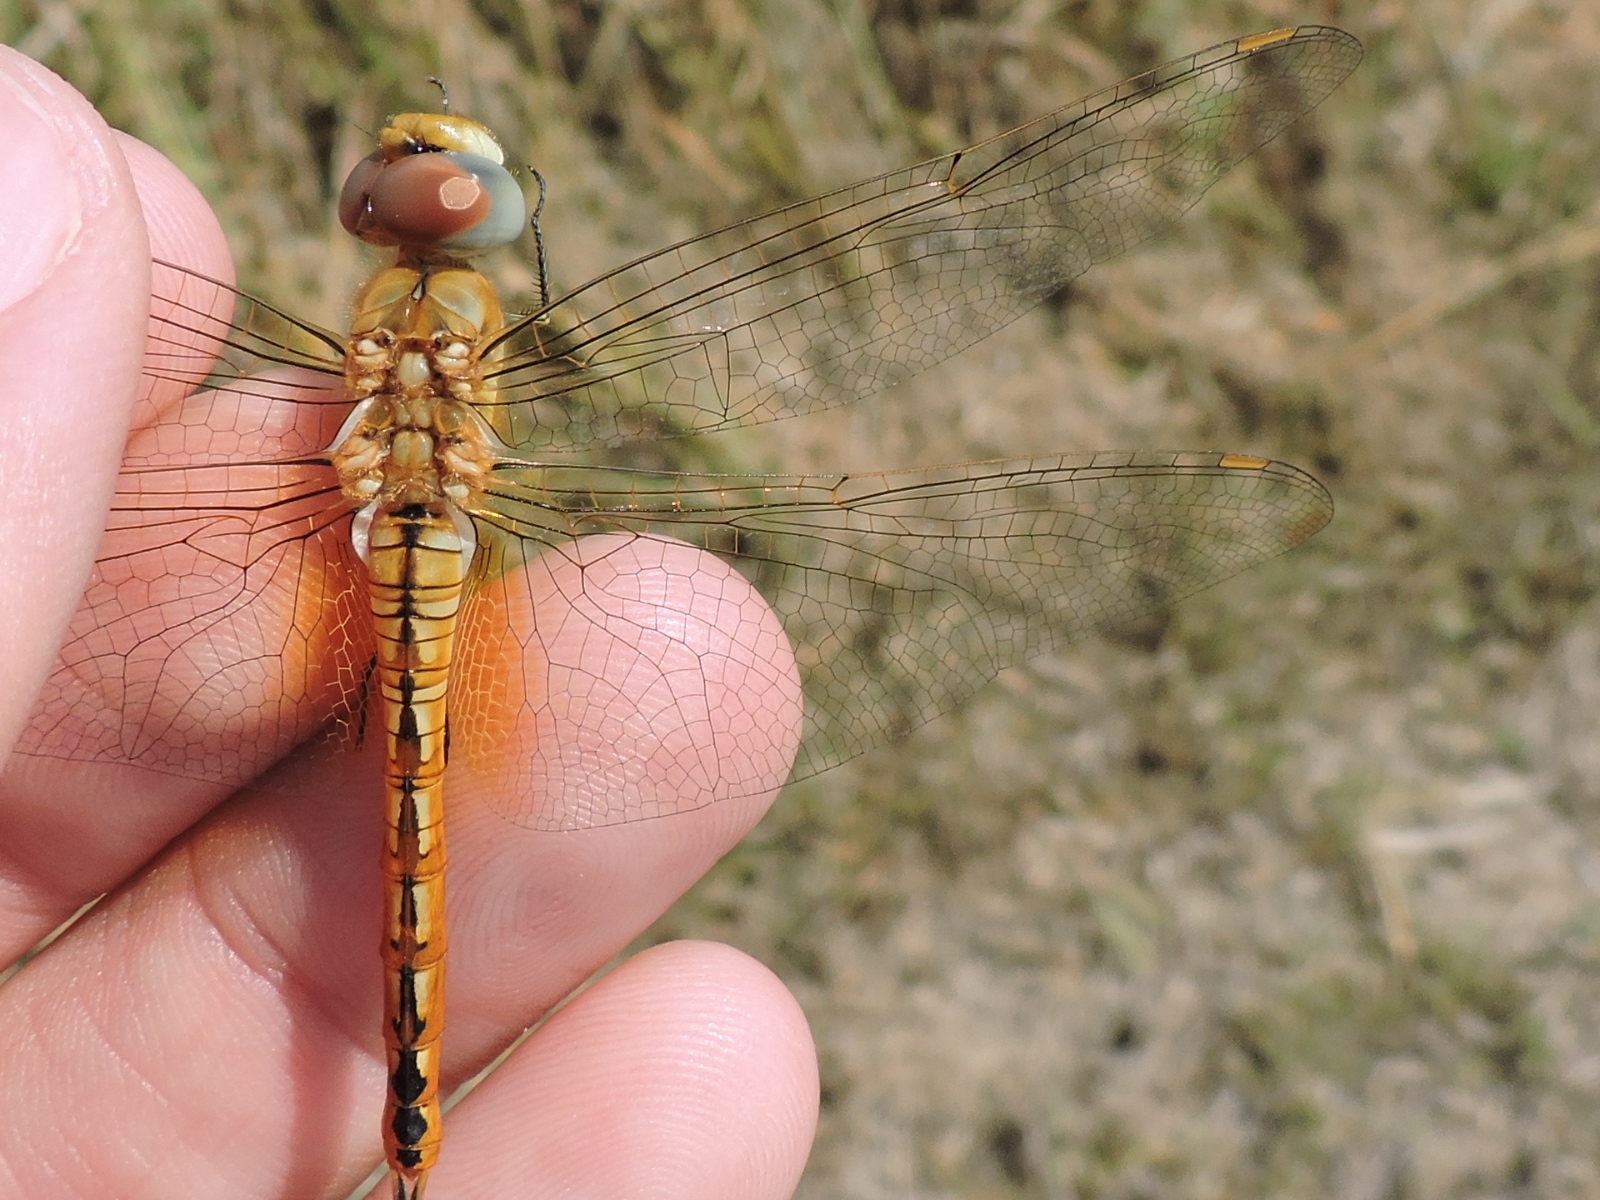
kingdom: Animalia
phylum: Arthropoda
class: Insecta
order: Odonata
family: Libellulidae
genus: Pantala
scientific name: Pantala flavescens
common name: Wandering glider
